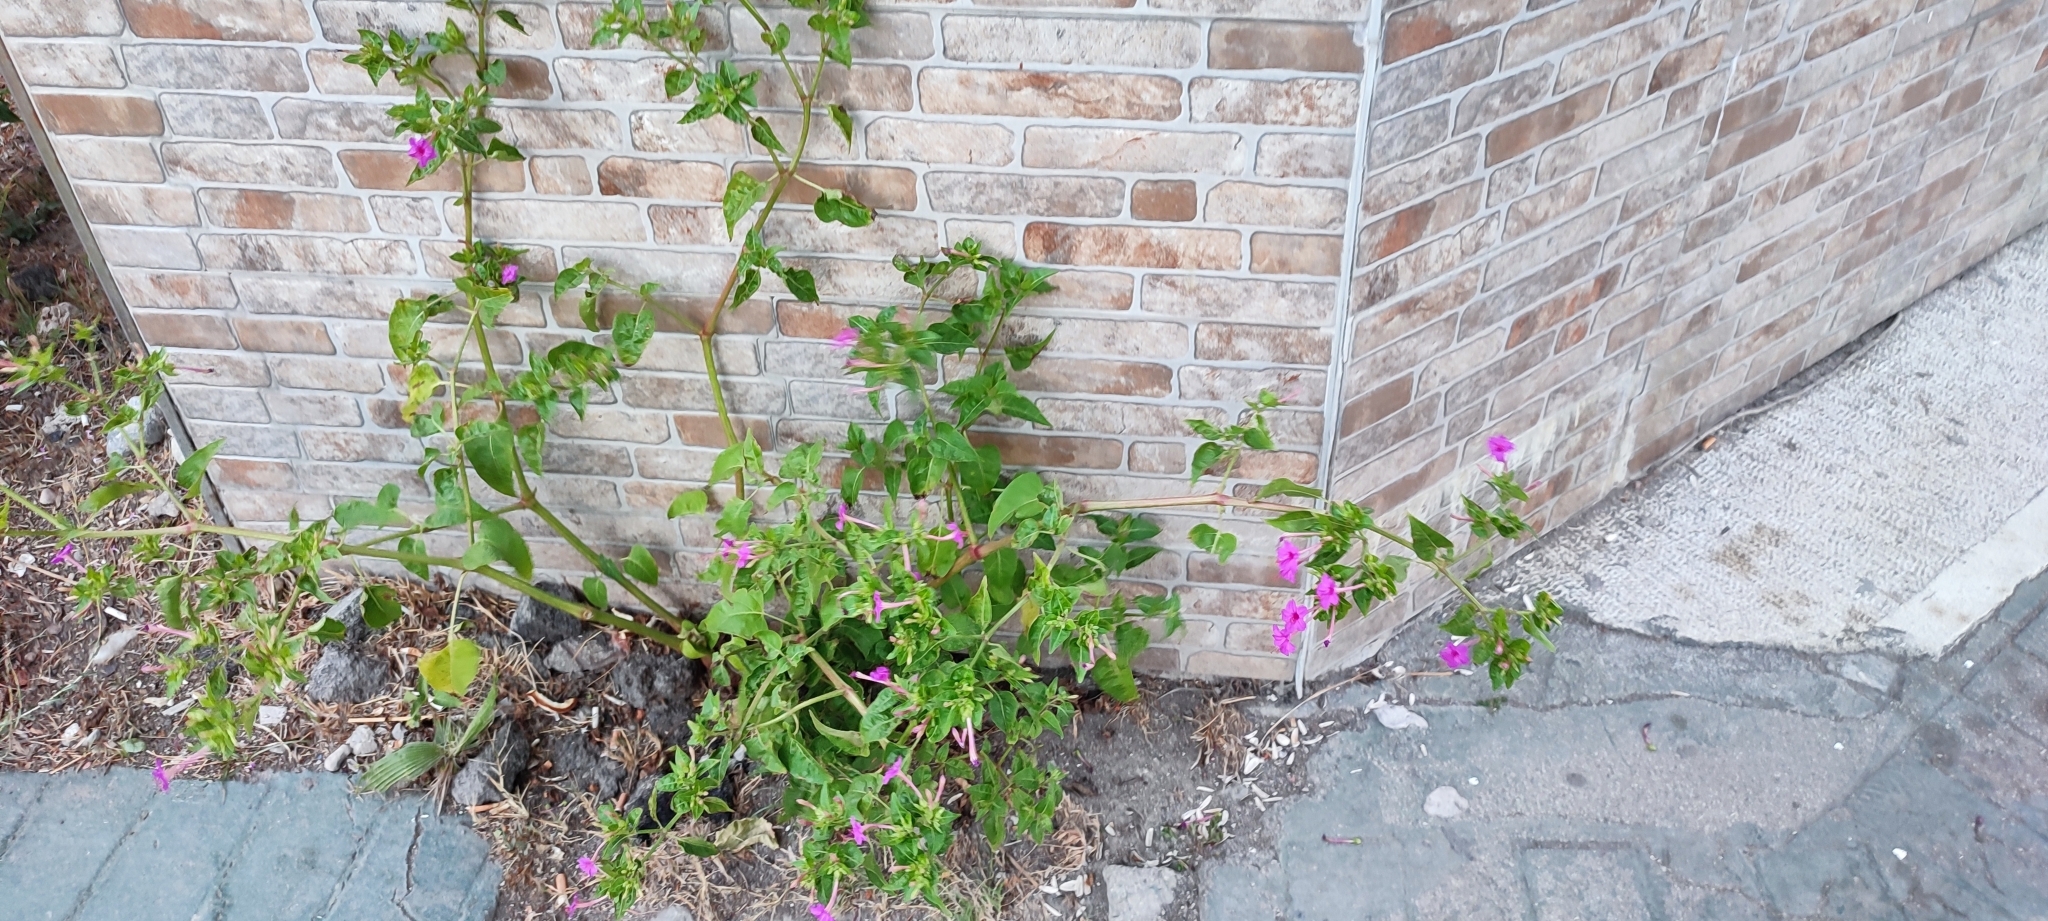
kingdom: Plantae
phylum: Tracheophyta
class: Magnoliopsida
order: Caryophyllales
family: Nyctaginaceae
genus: Mirabilis
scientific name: Mirabilis jalapa
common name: Marvel-of-peru
